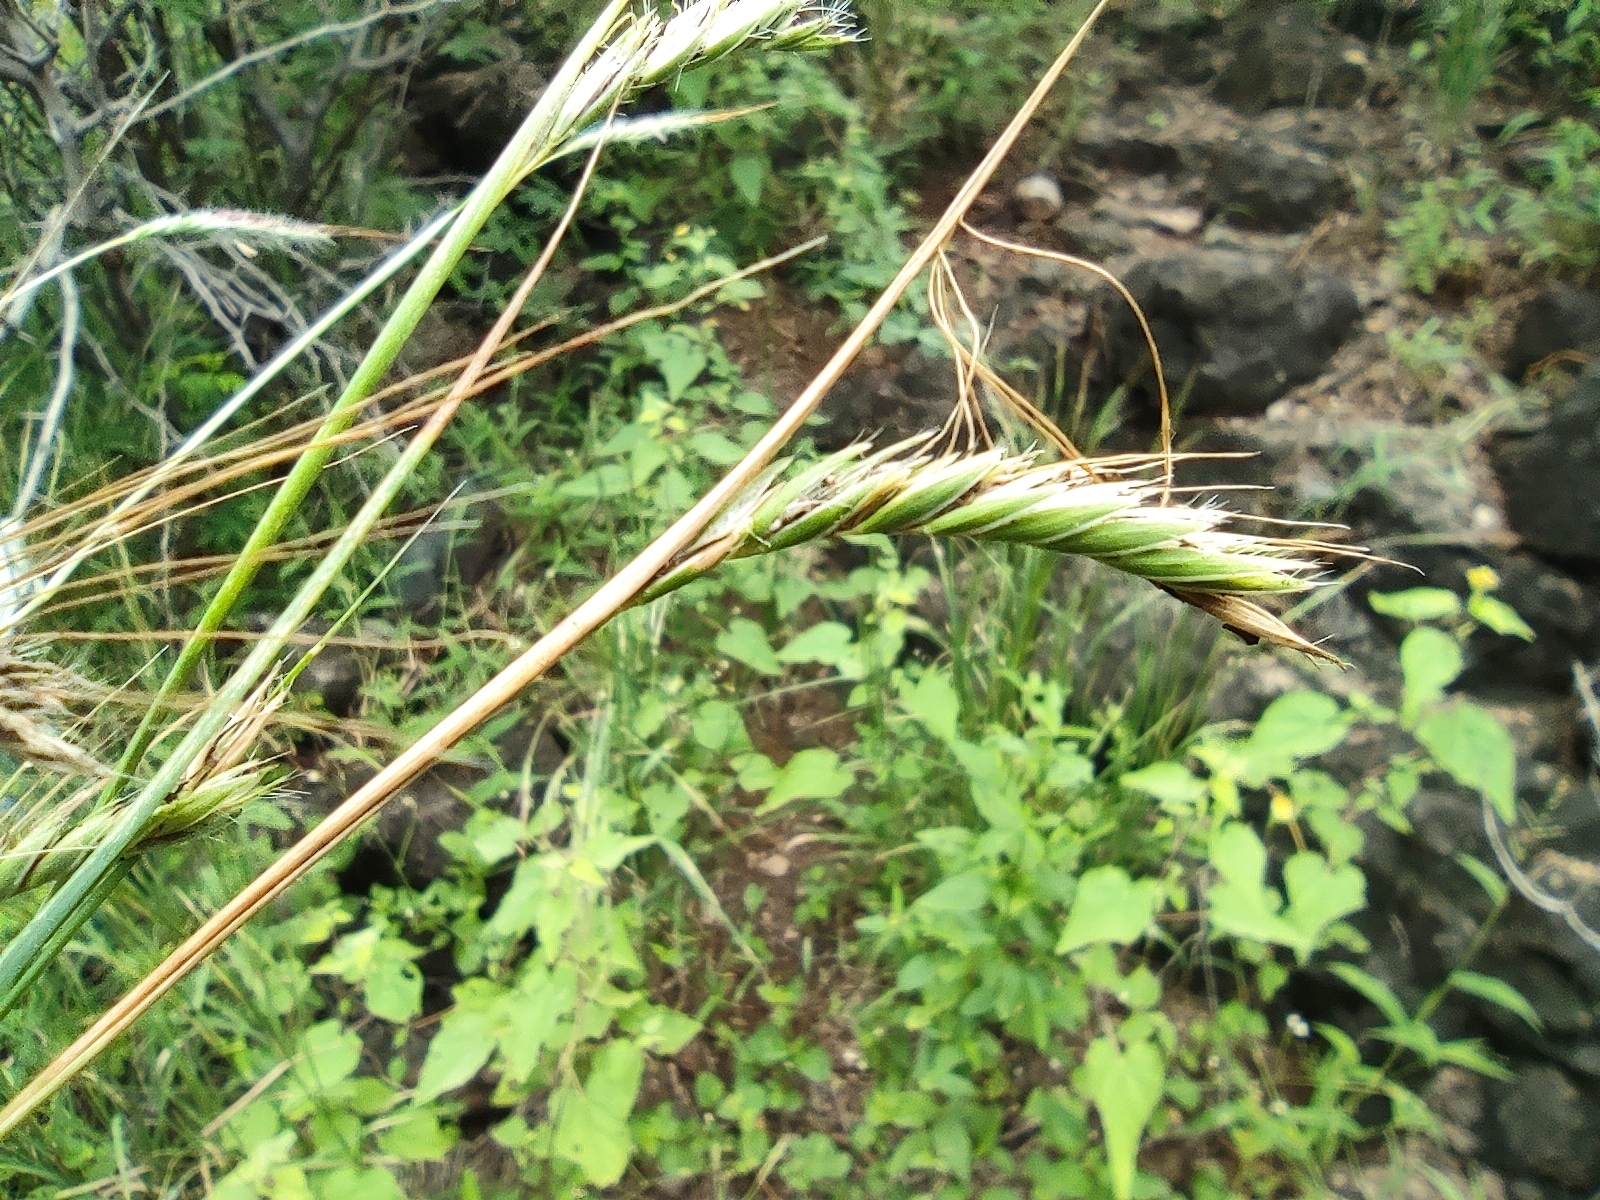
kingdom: Plantae
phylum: Tracheophyta
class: Liliopsida
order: Poales
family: Poaceae
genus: Heteropogon
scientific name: Heteropogon contortus
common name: Tanglehead
